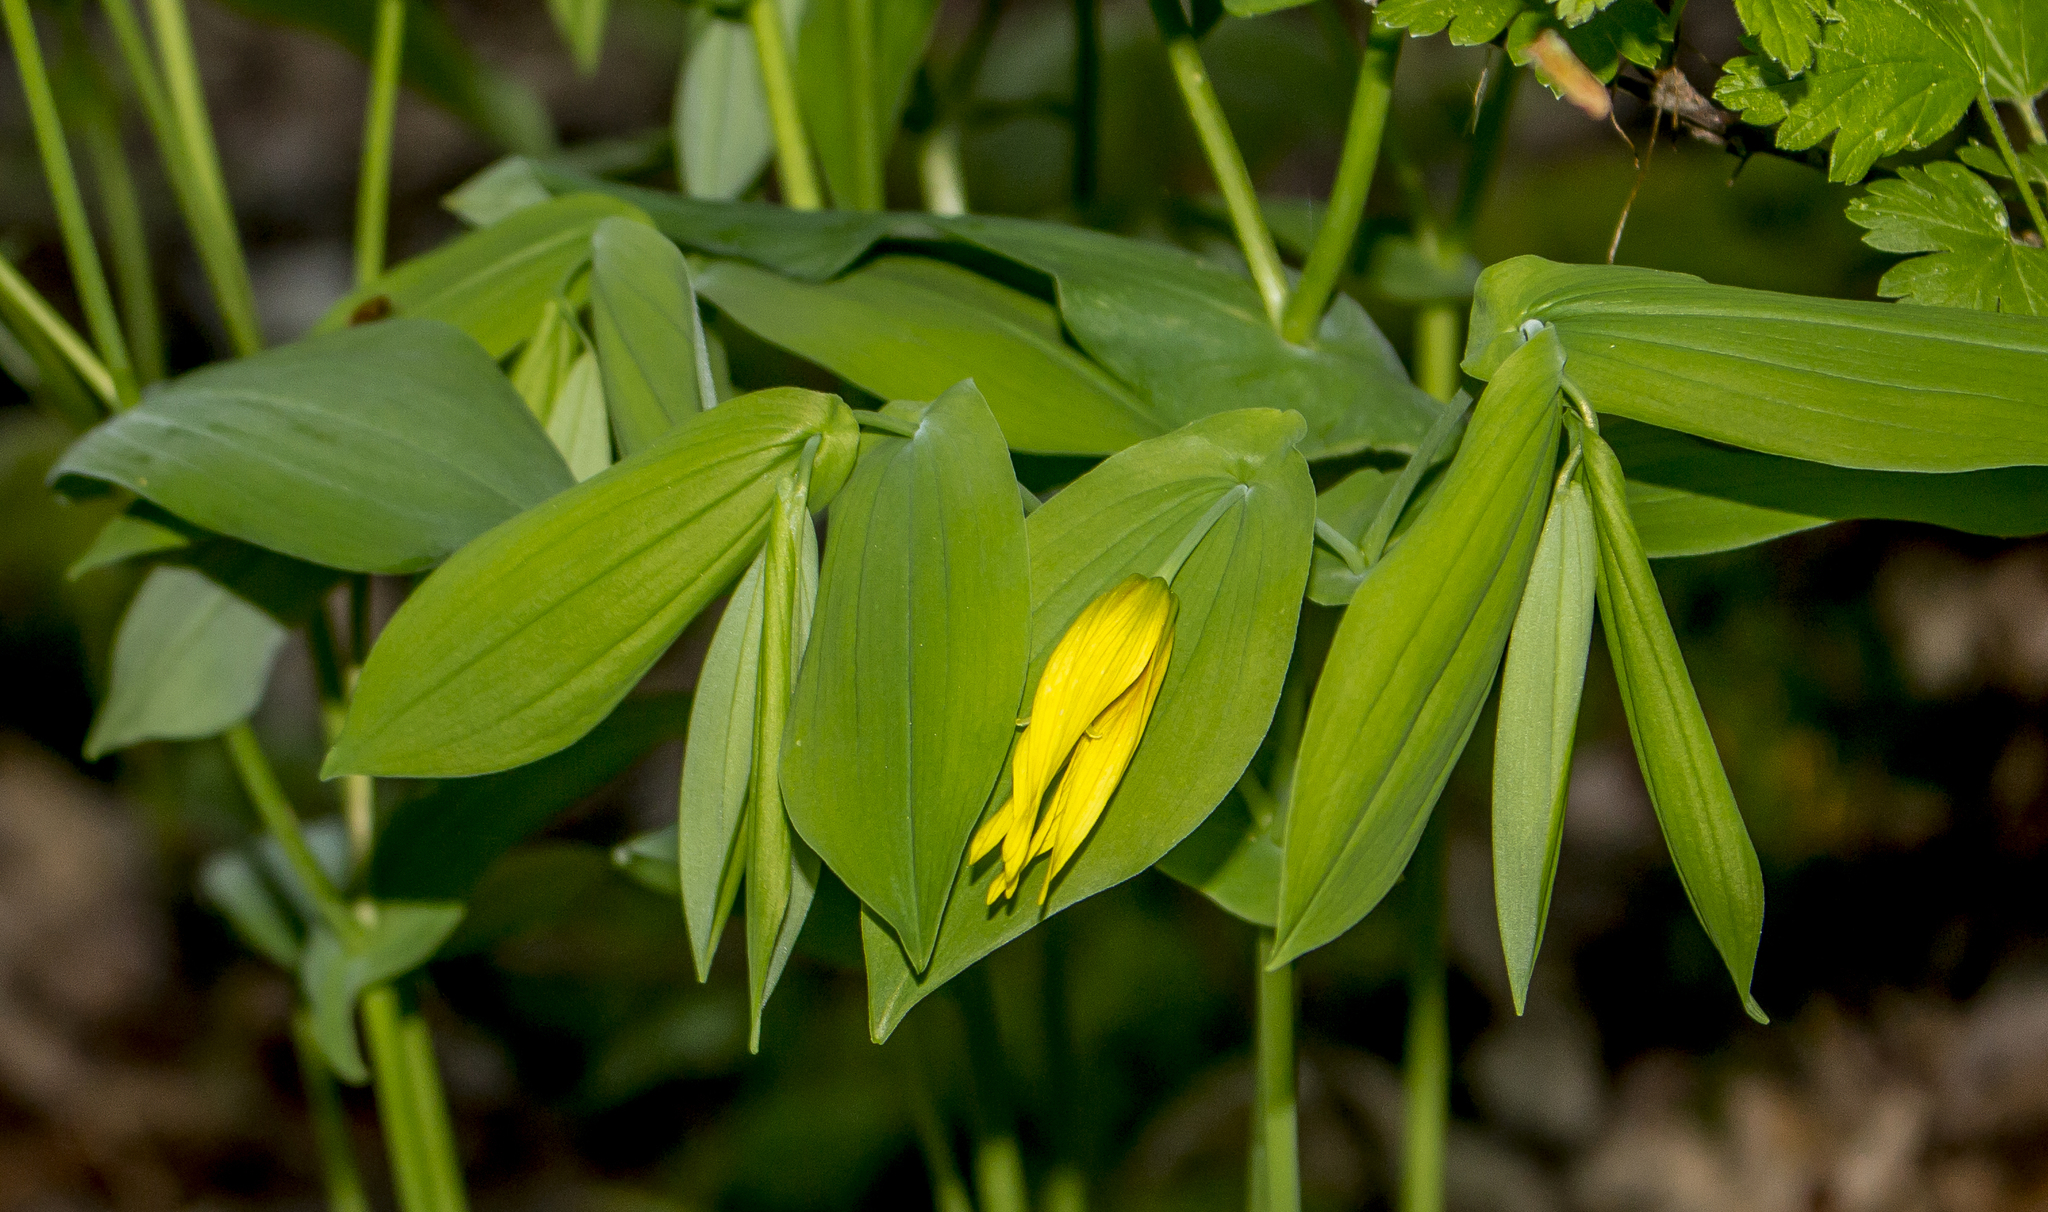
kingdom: Plantae
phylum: Tracheophyta
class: Liliopsida
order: Liliales
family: Colchicaceae
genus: Uvularia
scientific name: Uvularia grandiflora
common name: Bellwort
